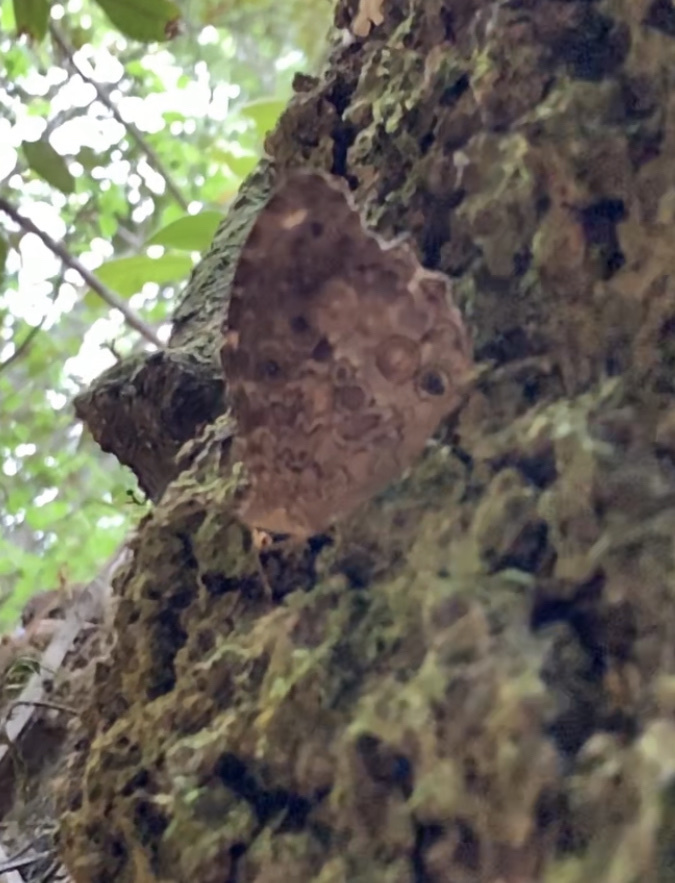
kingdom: Animalia
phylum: Arthropoda
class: Insecta
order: Lepidoptera
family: Nymphalidae
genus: Manataria
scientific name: Manataria maculata
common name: White-spotted satyr
